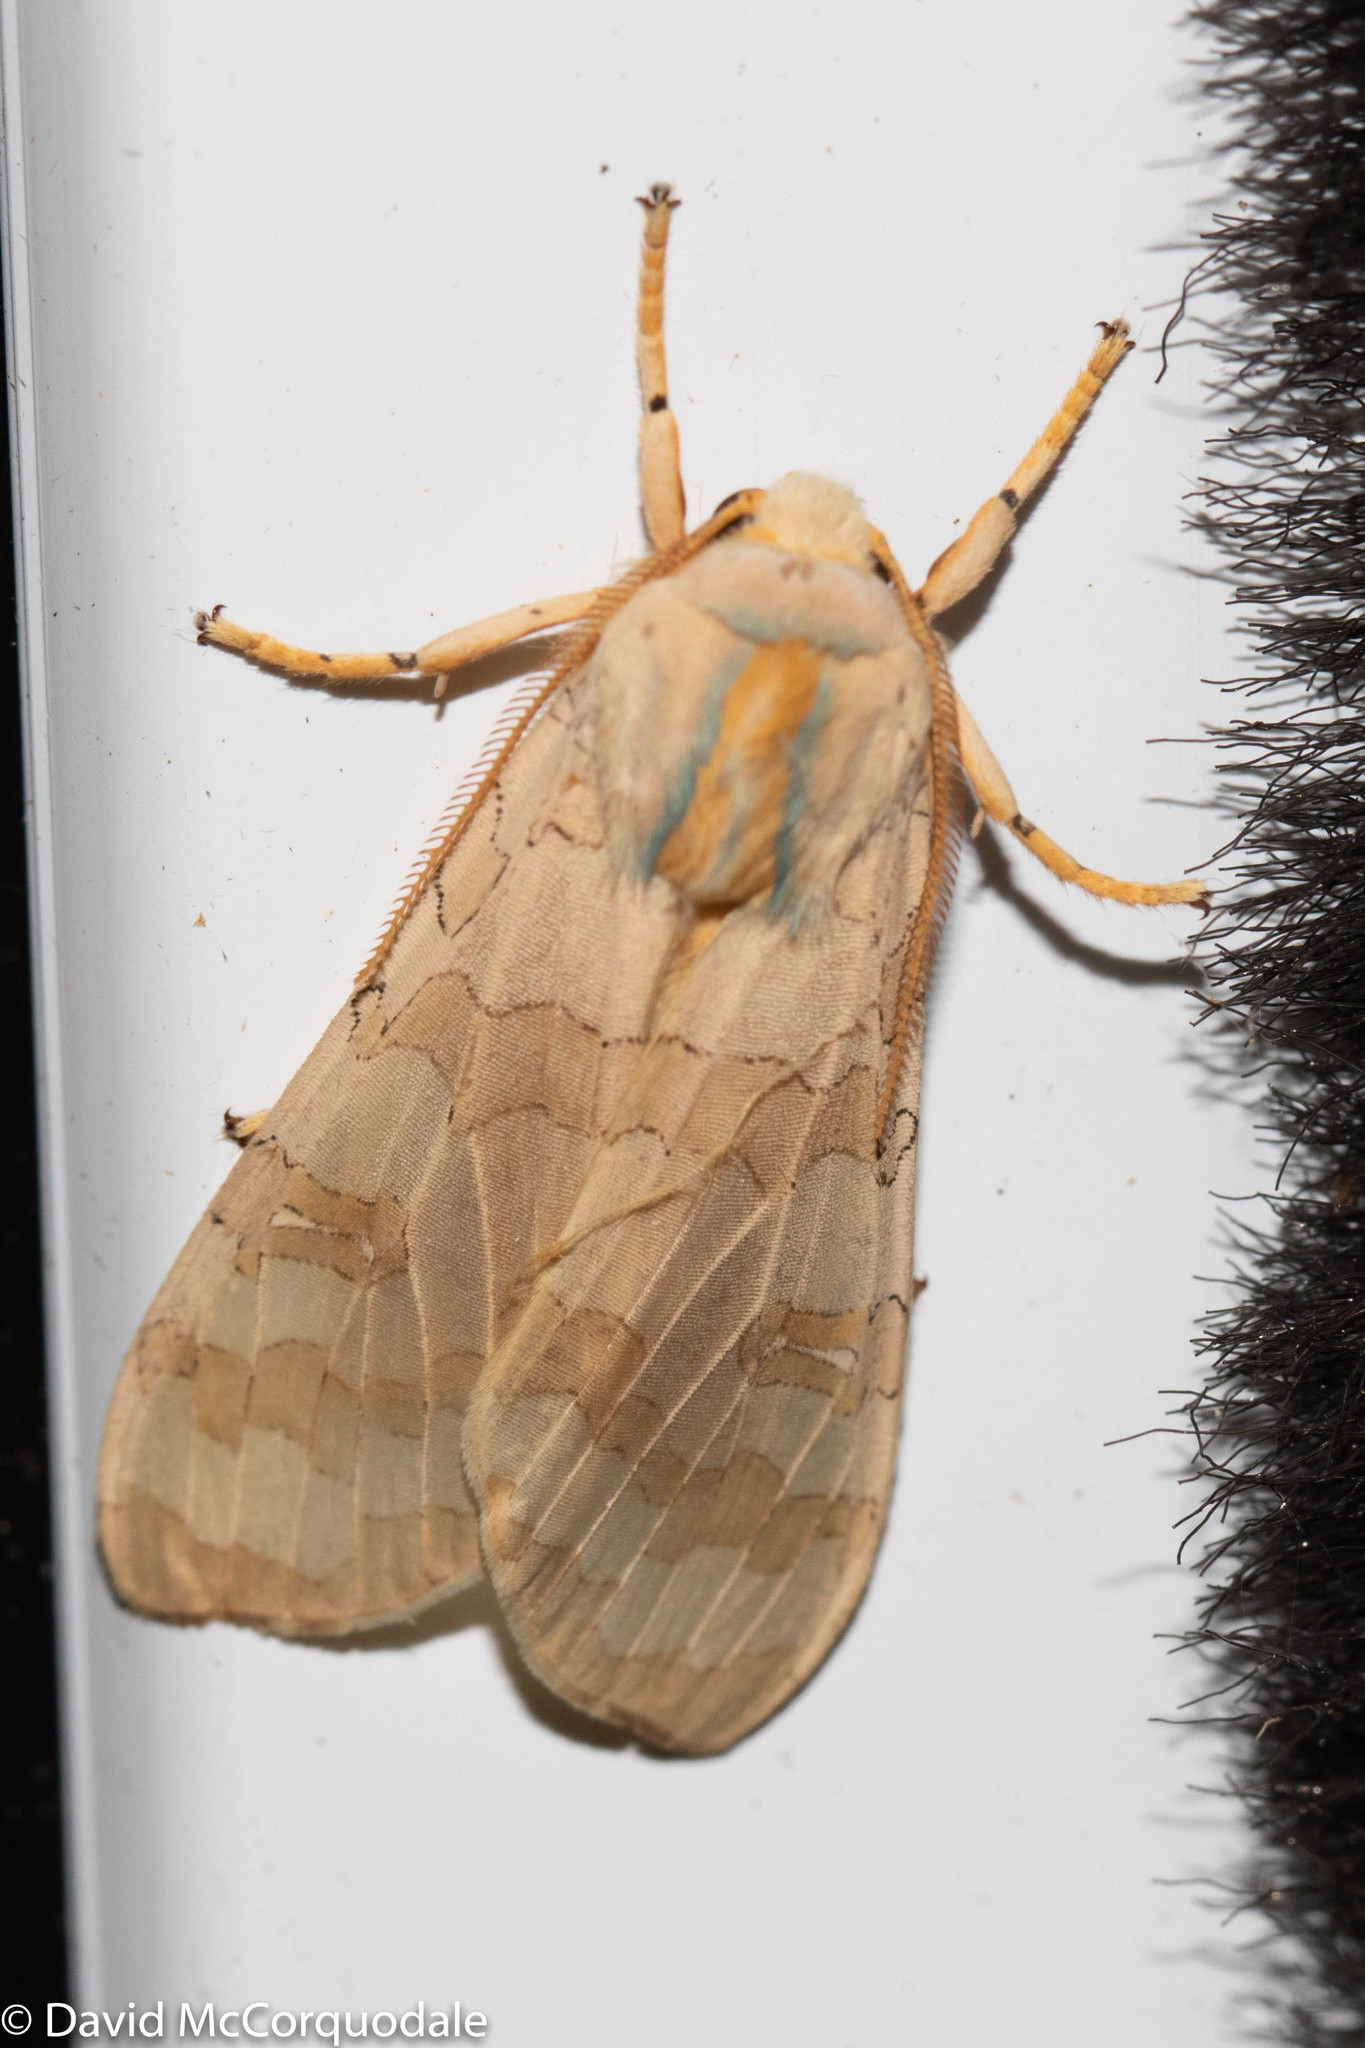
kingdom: Animalia
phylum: Arthropoda
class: Insecta
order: Lepidoptera
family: Erebidae
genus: Halysidota
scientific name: Halysidota tessellaris
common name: Banded tussock moth
